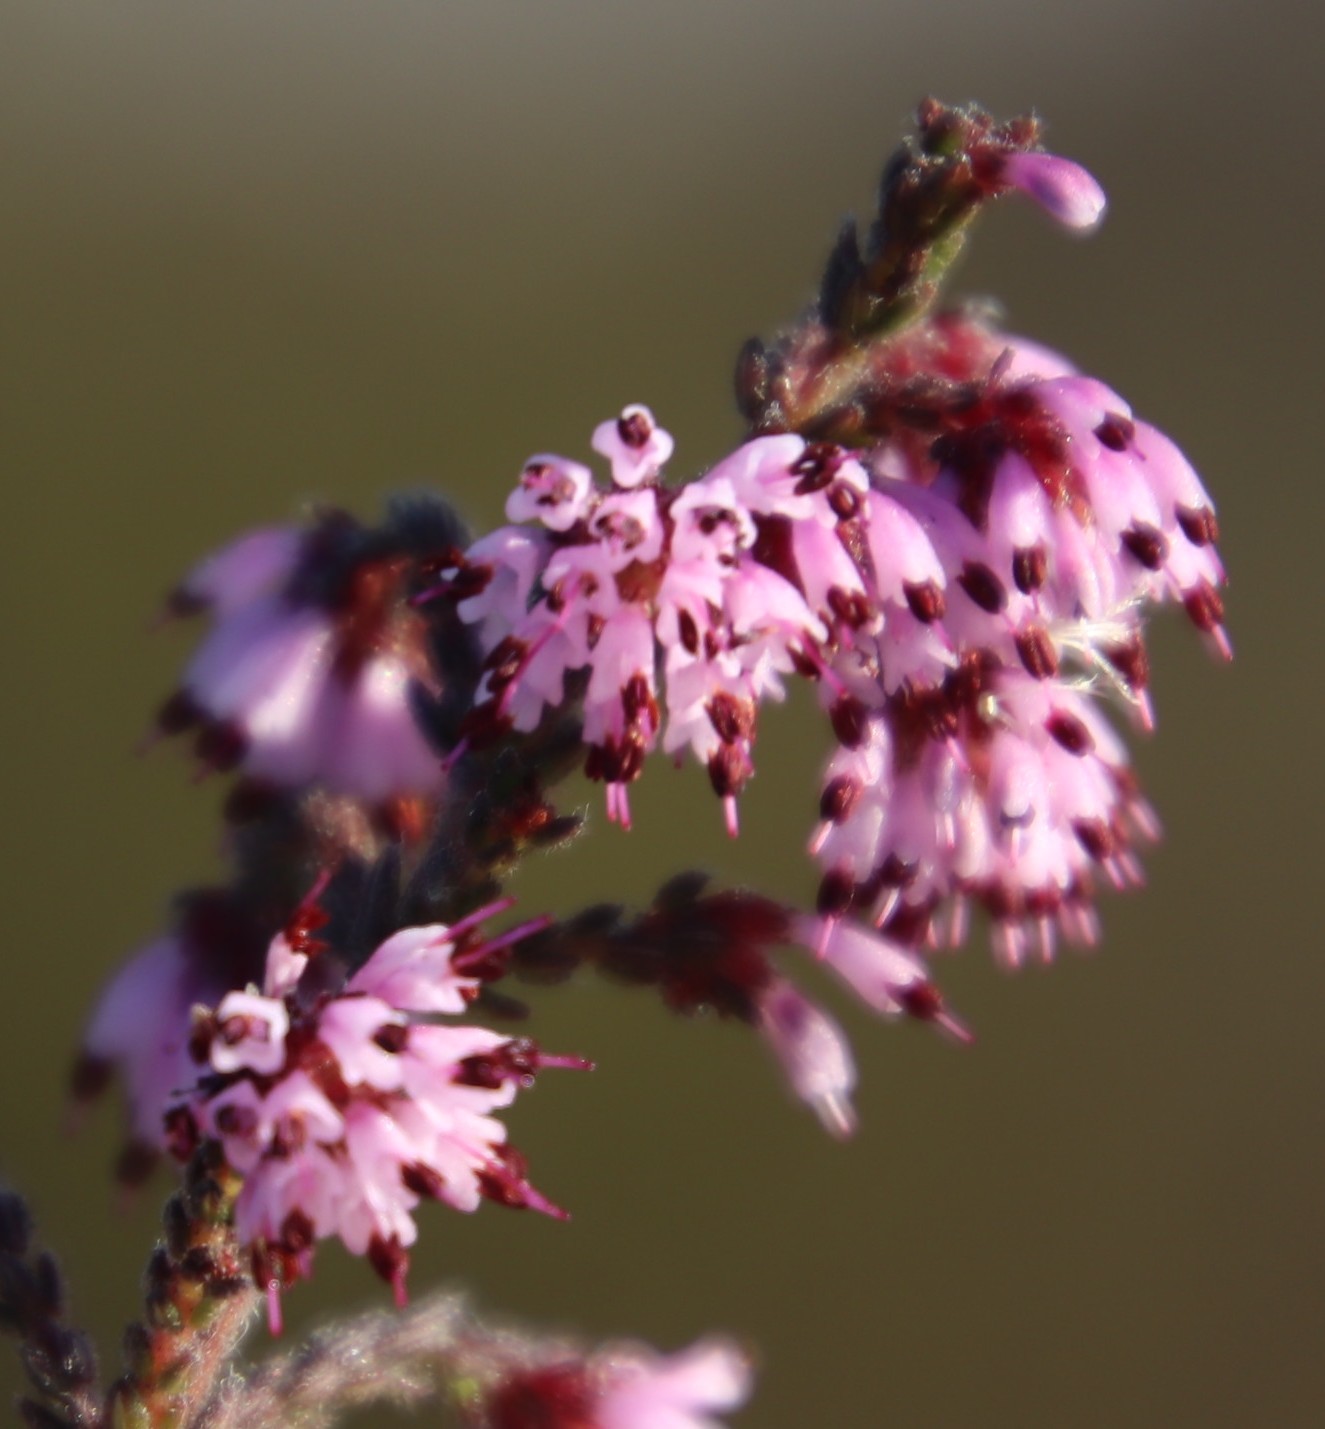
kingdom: Plantae
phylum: Tracheophyta
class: Magnoliopsida
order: Ericales
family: Ericaceae
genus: Erica
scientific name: Erica ericoides
